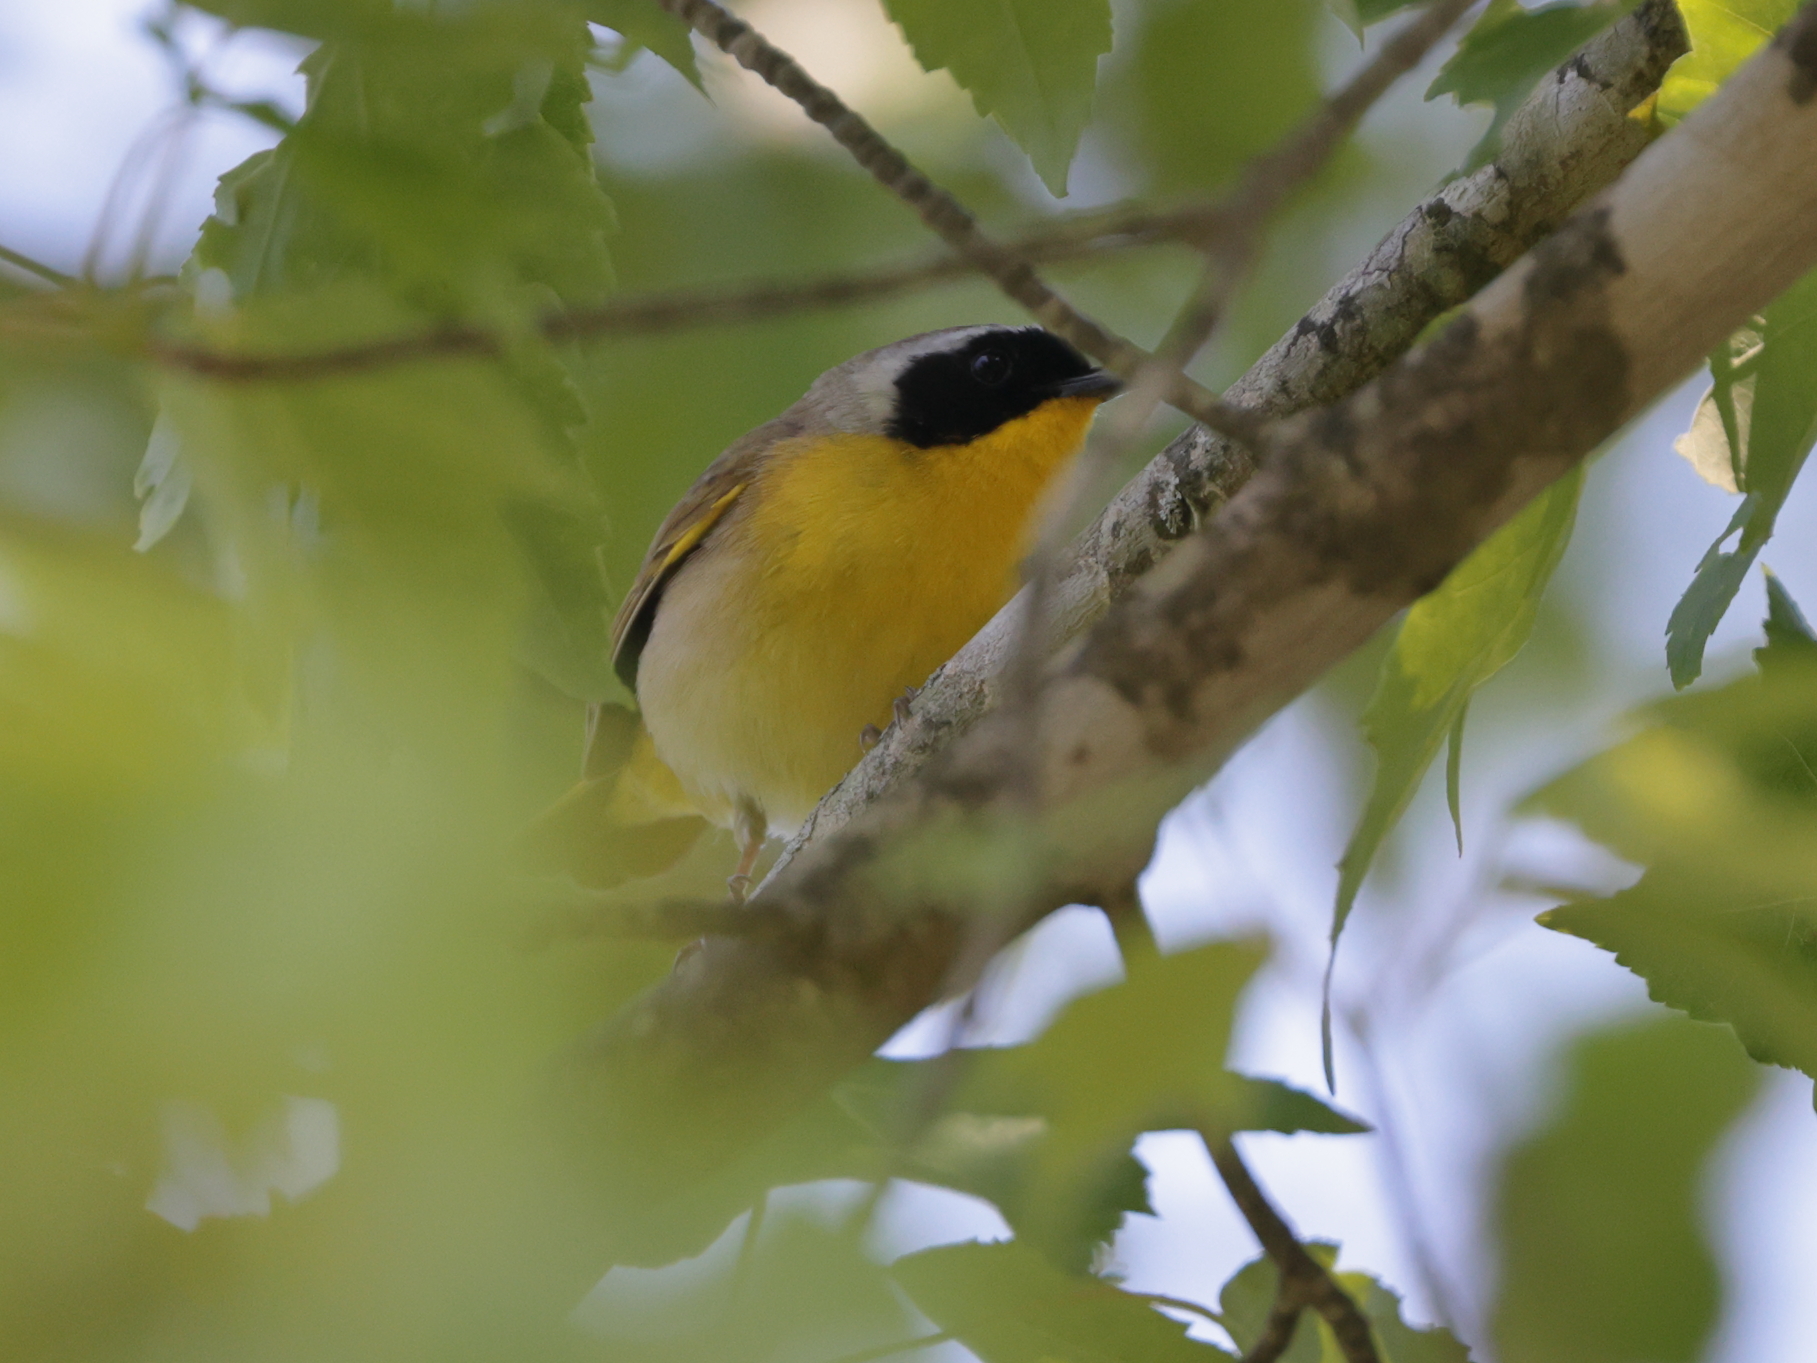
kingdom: Animalia
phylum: Chordata
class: Aves
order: Passeriformes
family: Parulidae
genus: Geothlypis
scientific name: Geothlypis trichas
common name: Common yellowthroat
